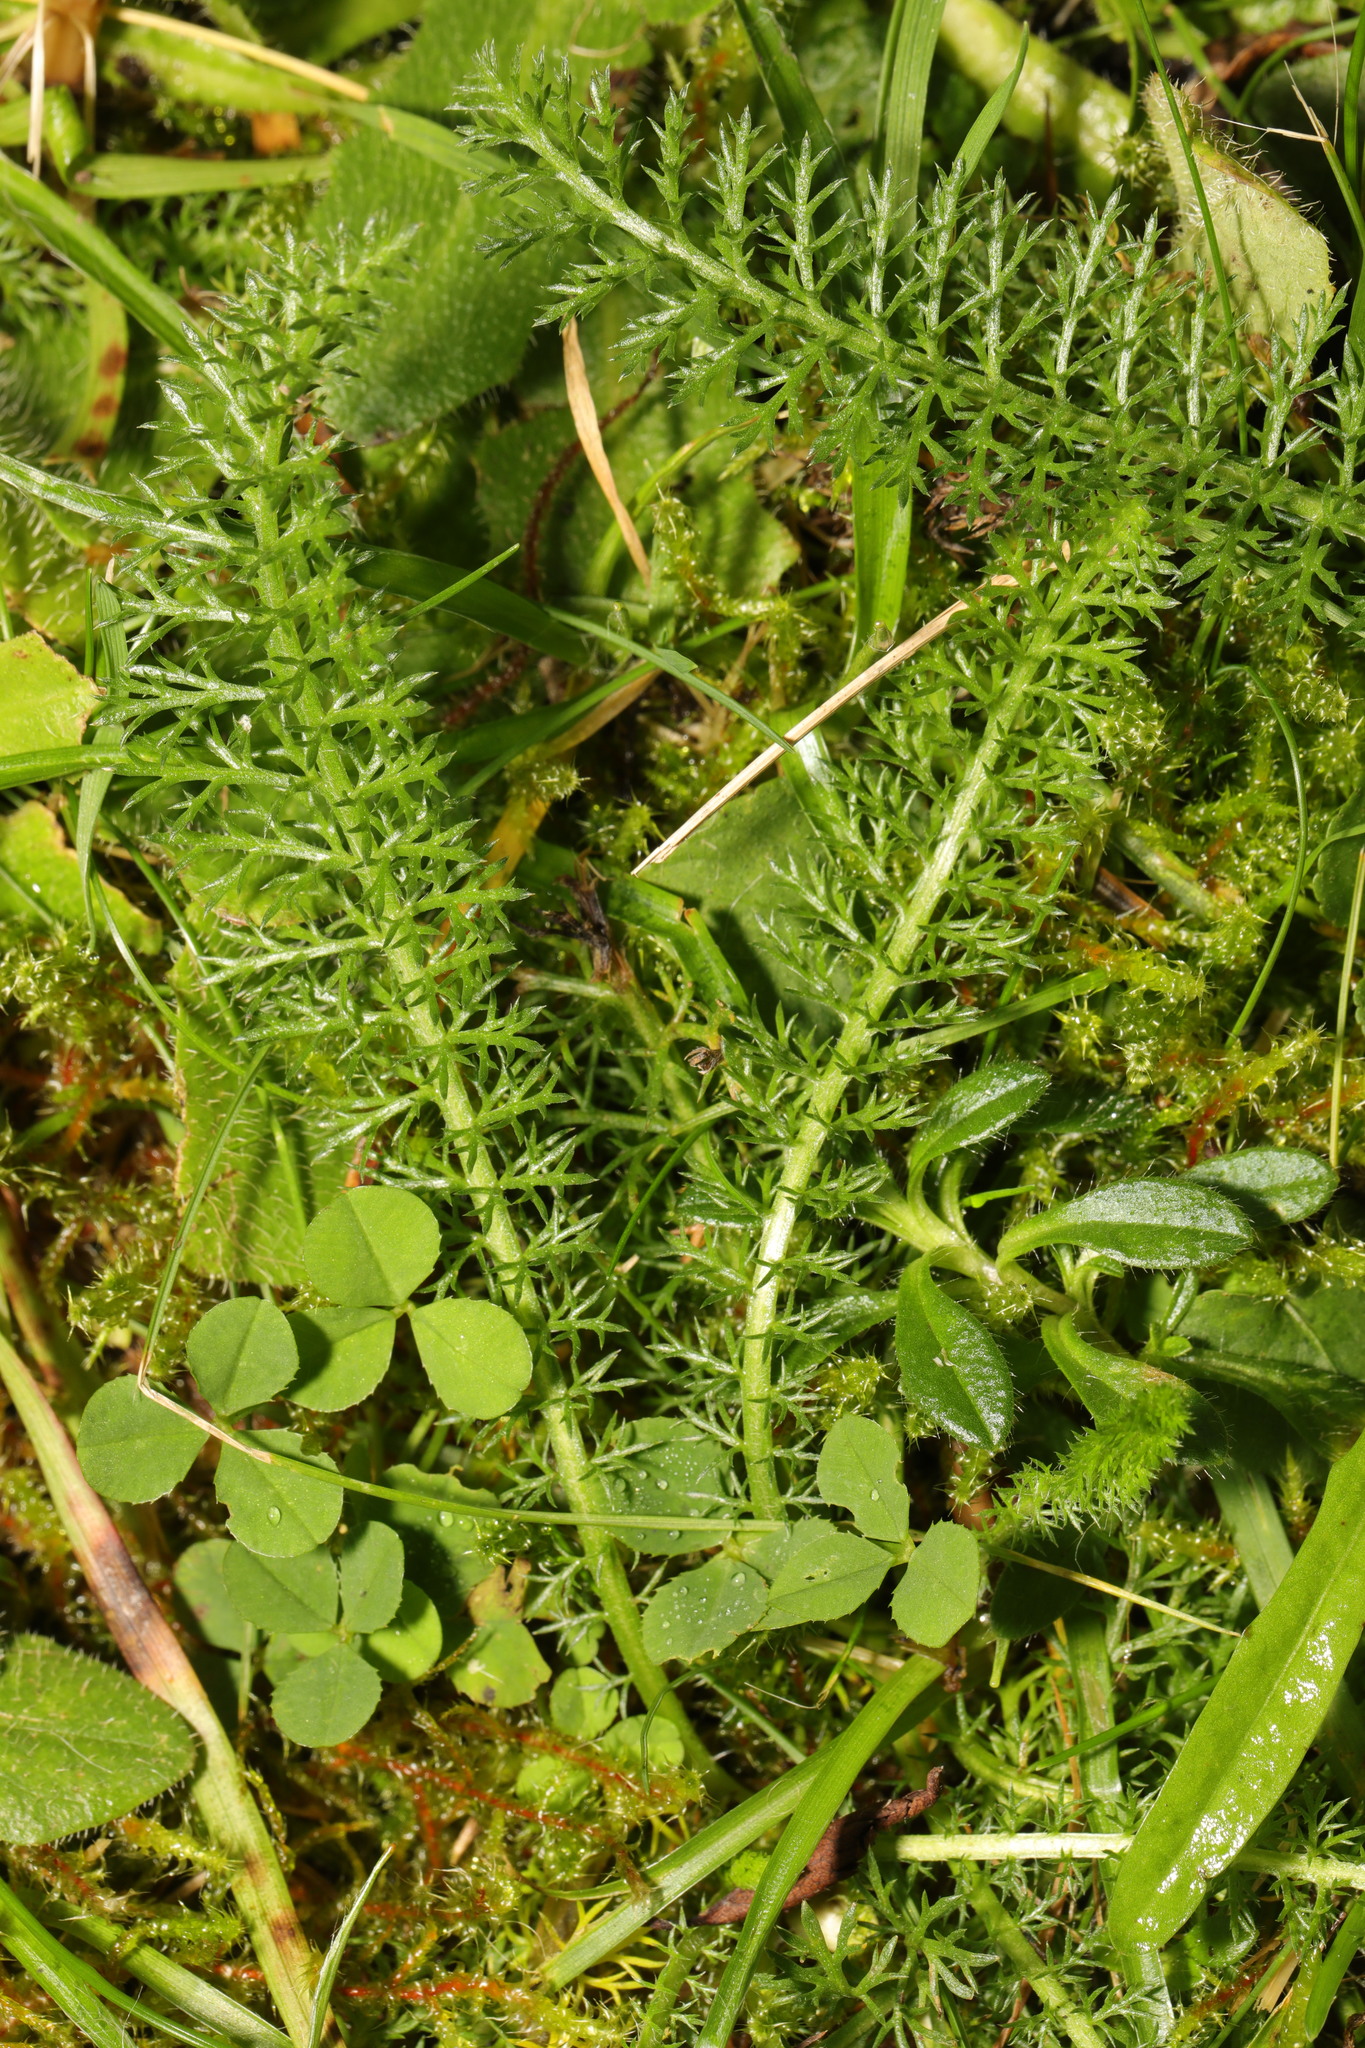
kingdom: Plantae
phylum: Tracheophyta
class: Magnoliopsida
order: Asterales
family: Asteraceae
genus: Achillea
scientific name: Achillea millefolium
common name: Yarrow
